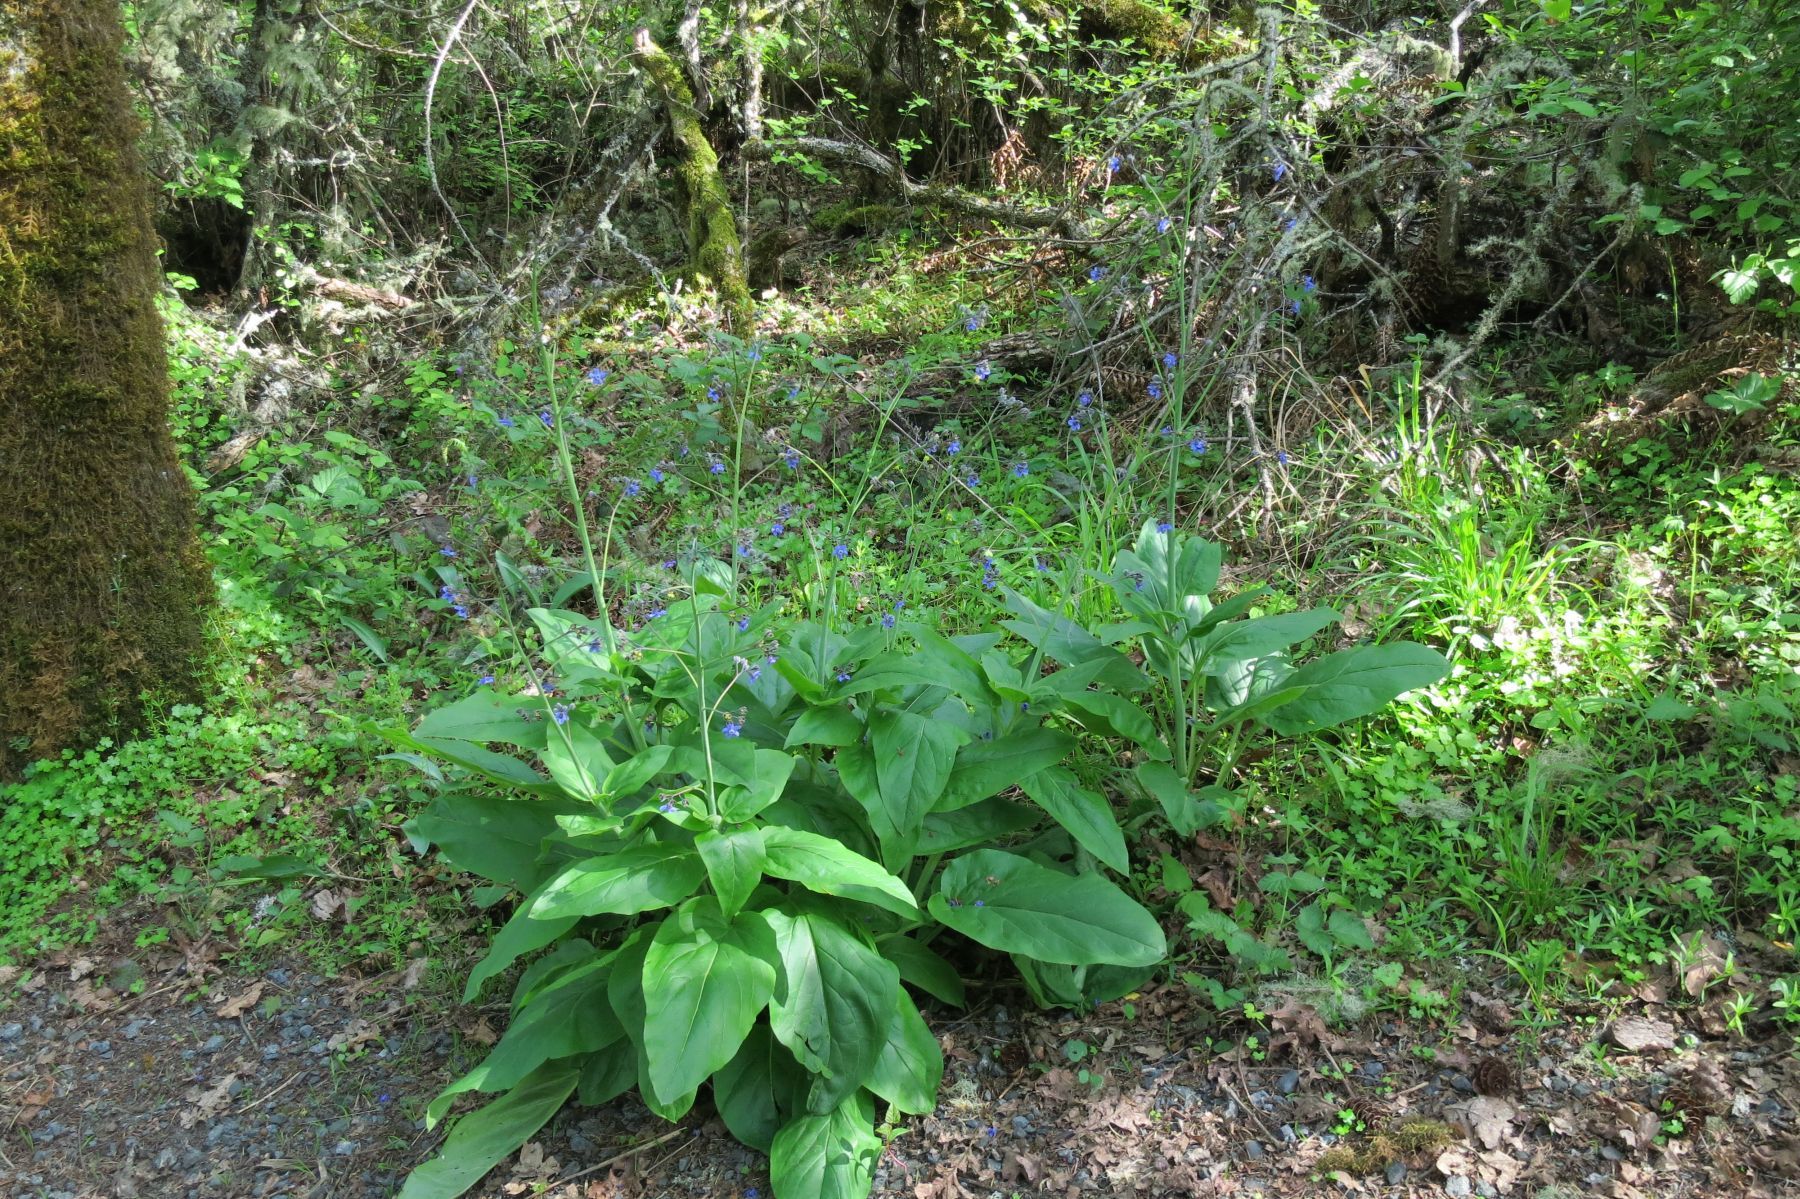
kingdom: Plantae
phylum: Tracheophyta
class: Magnoliopsida
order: Boraginales
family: Boraginaceae
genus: Adelinia
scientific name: Adelinia grande
